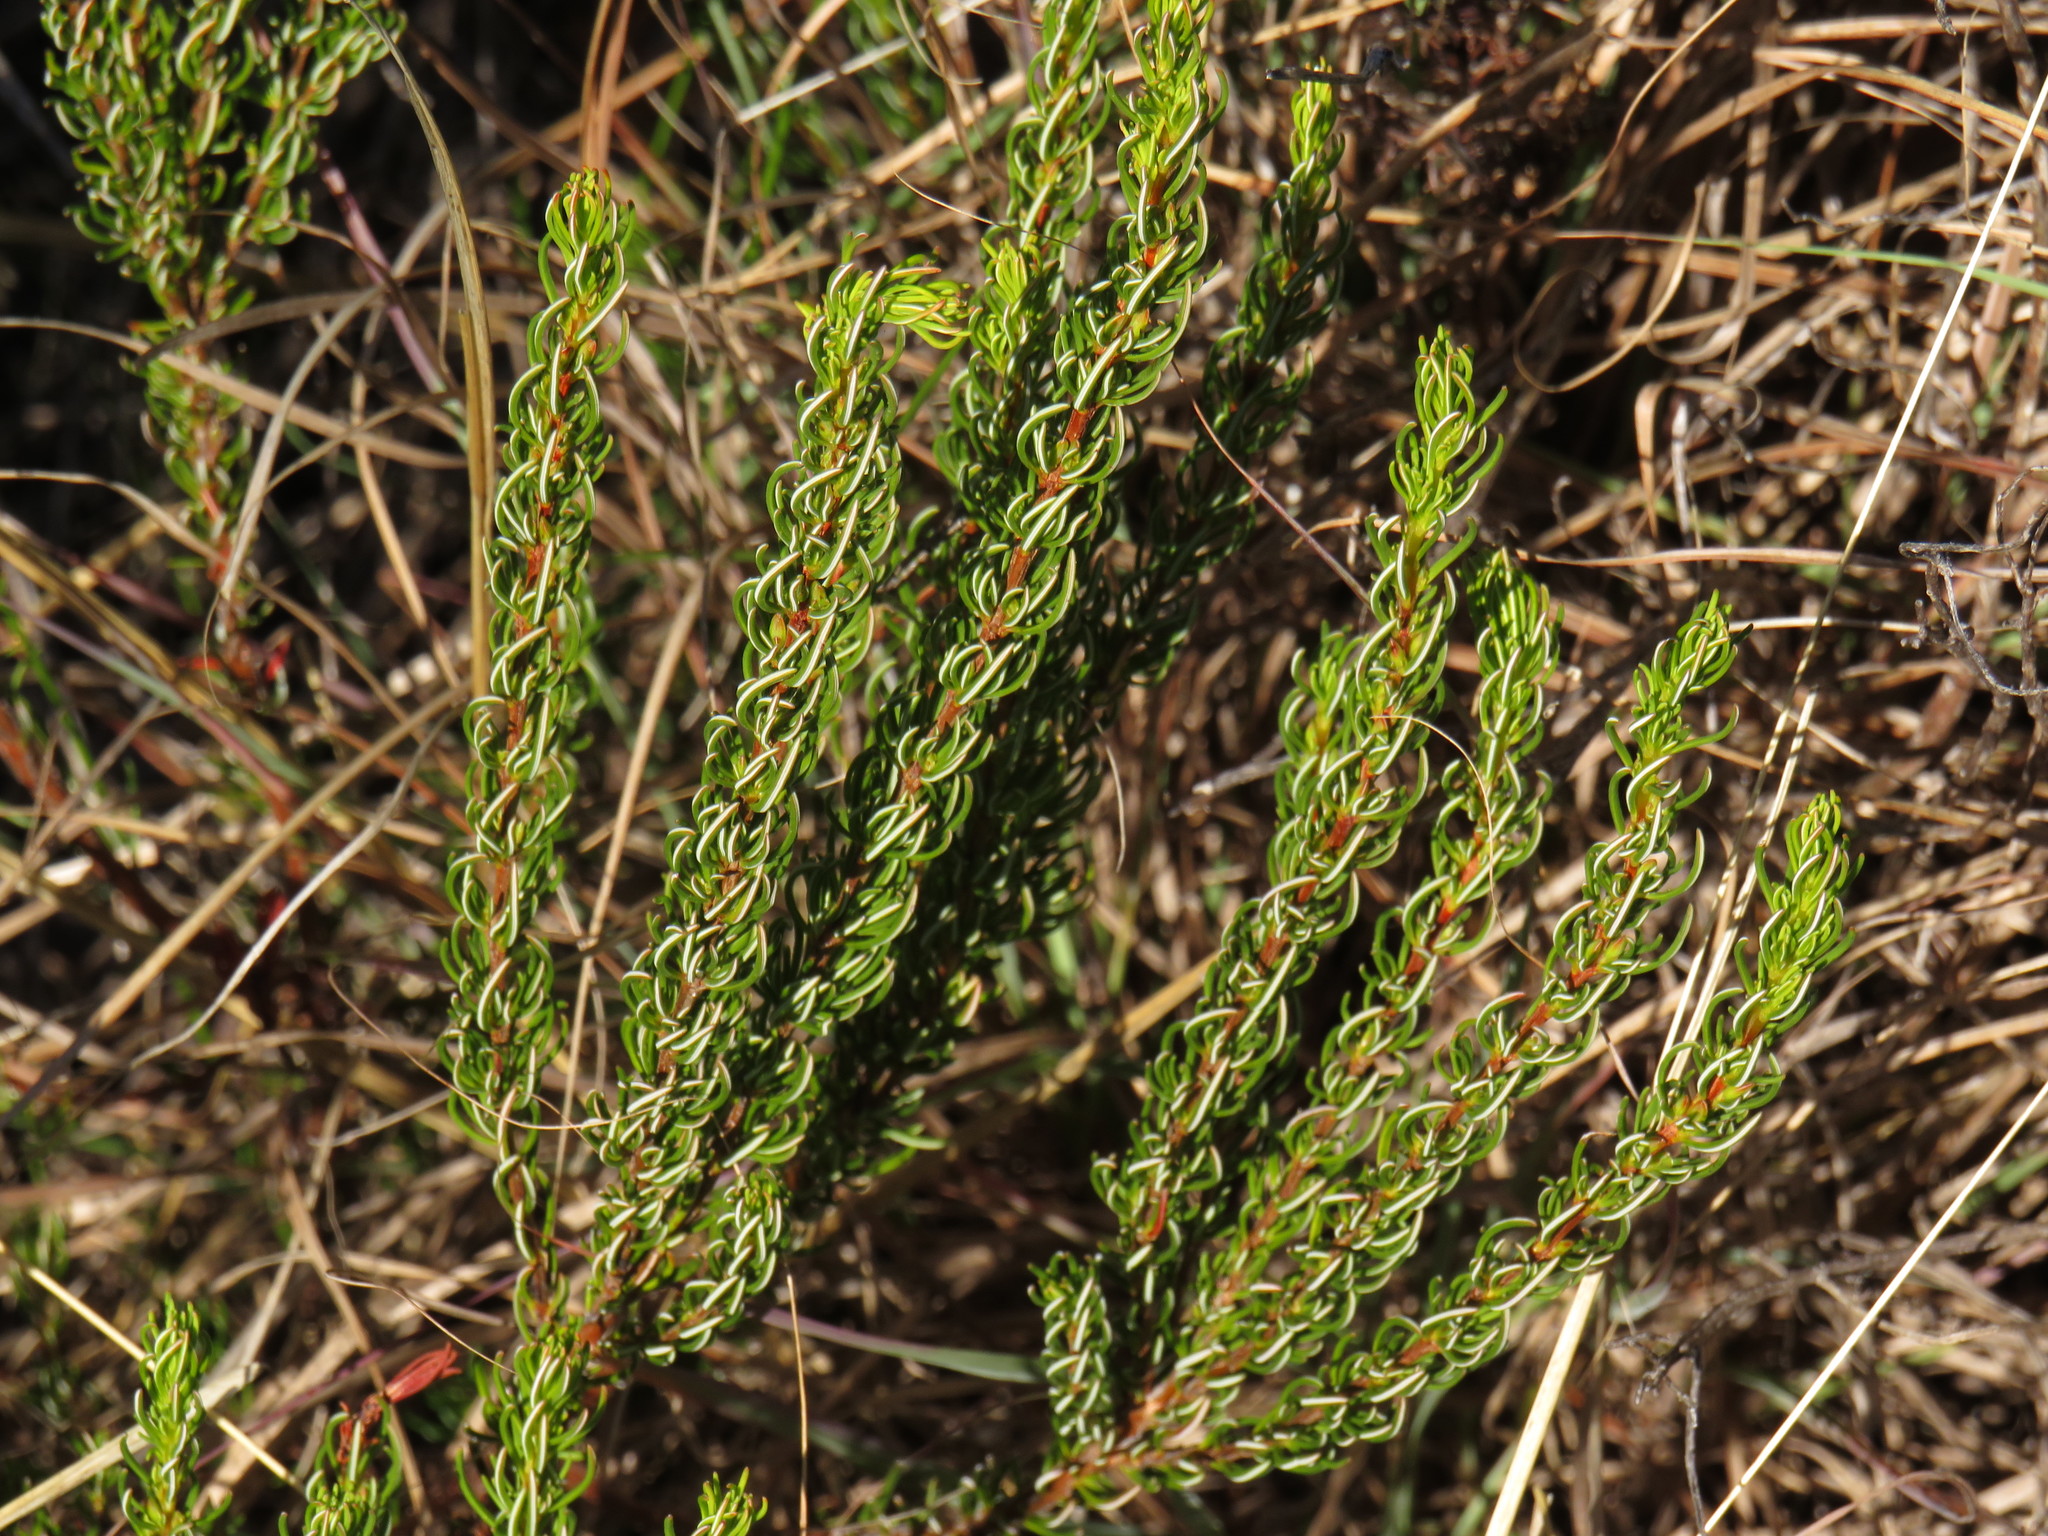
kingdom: Plantae
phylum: Tracheophyta
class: Magnoliopsida
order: Ericales
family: Ericaceae
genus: Erica
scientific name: Erica plukenetii
